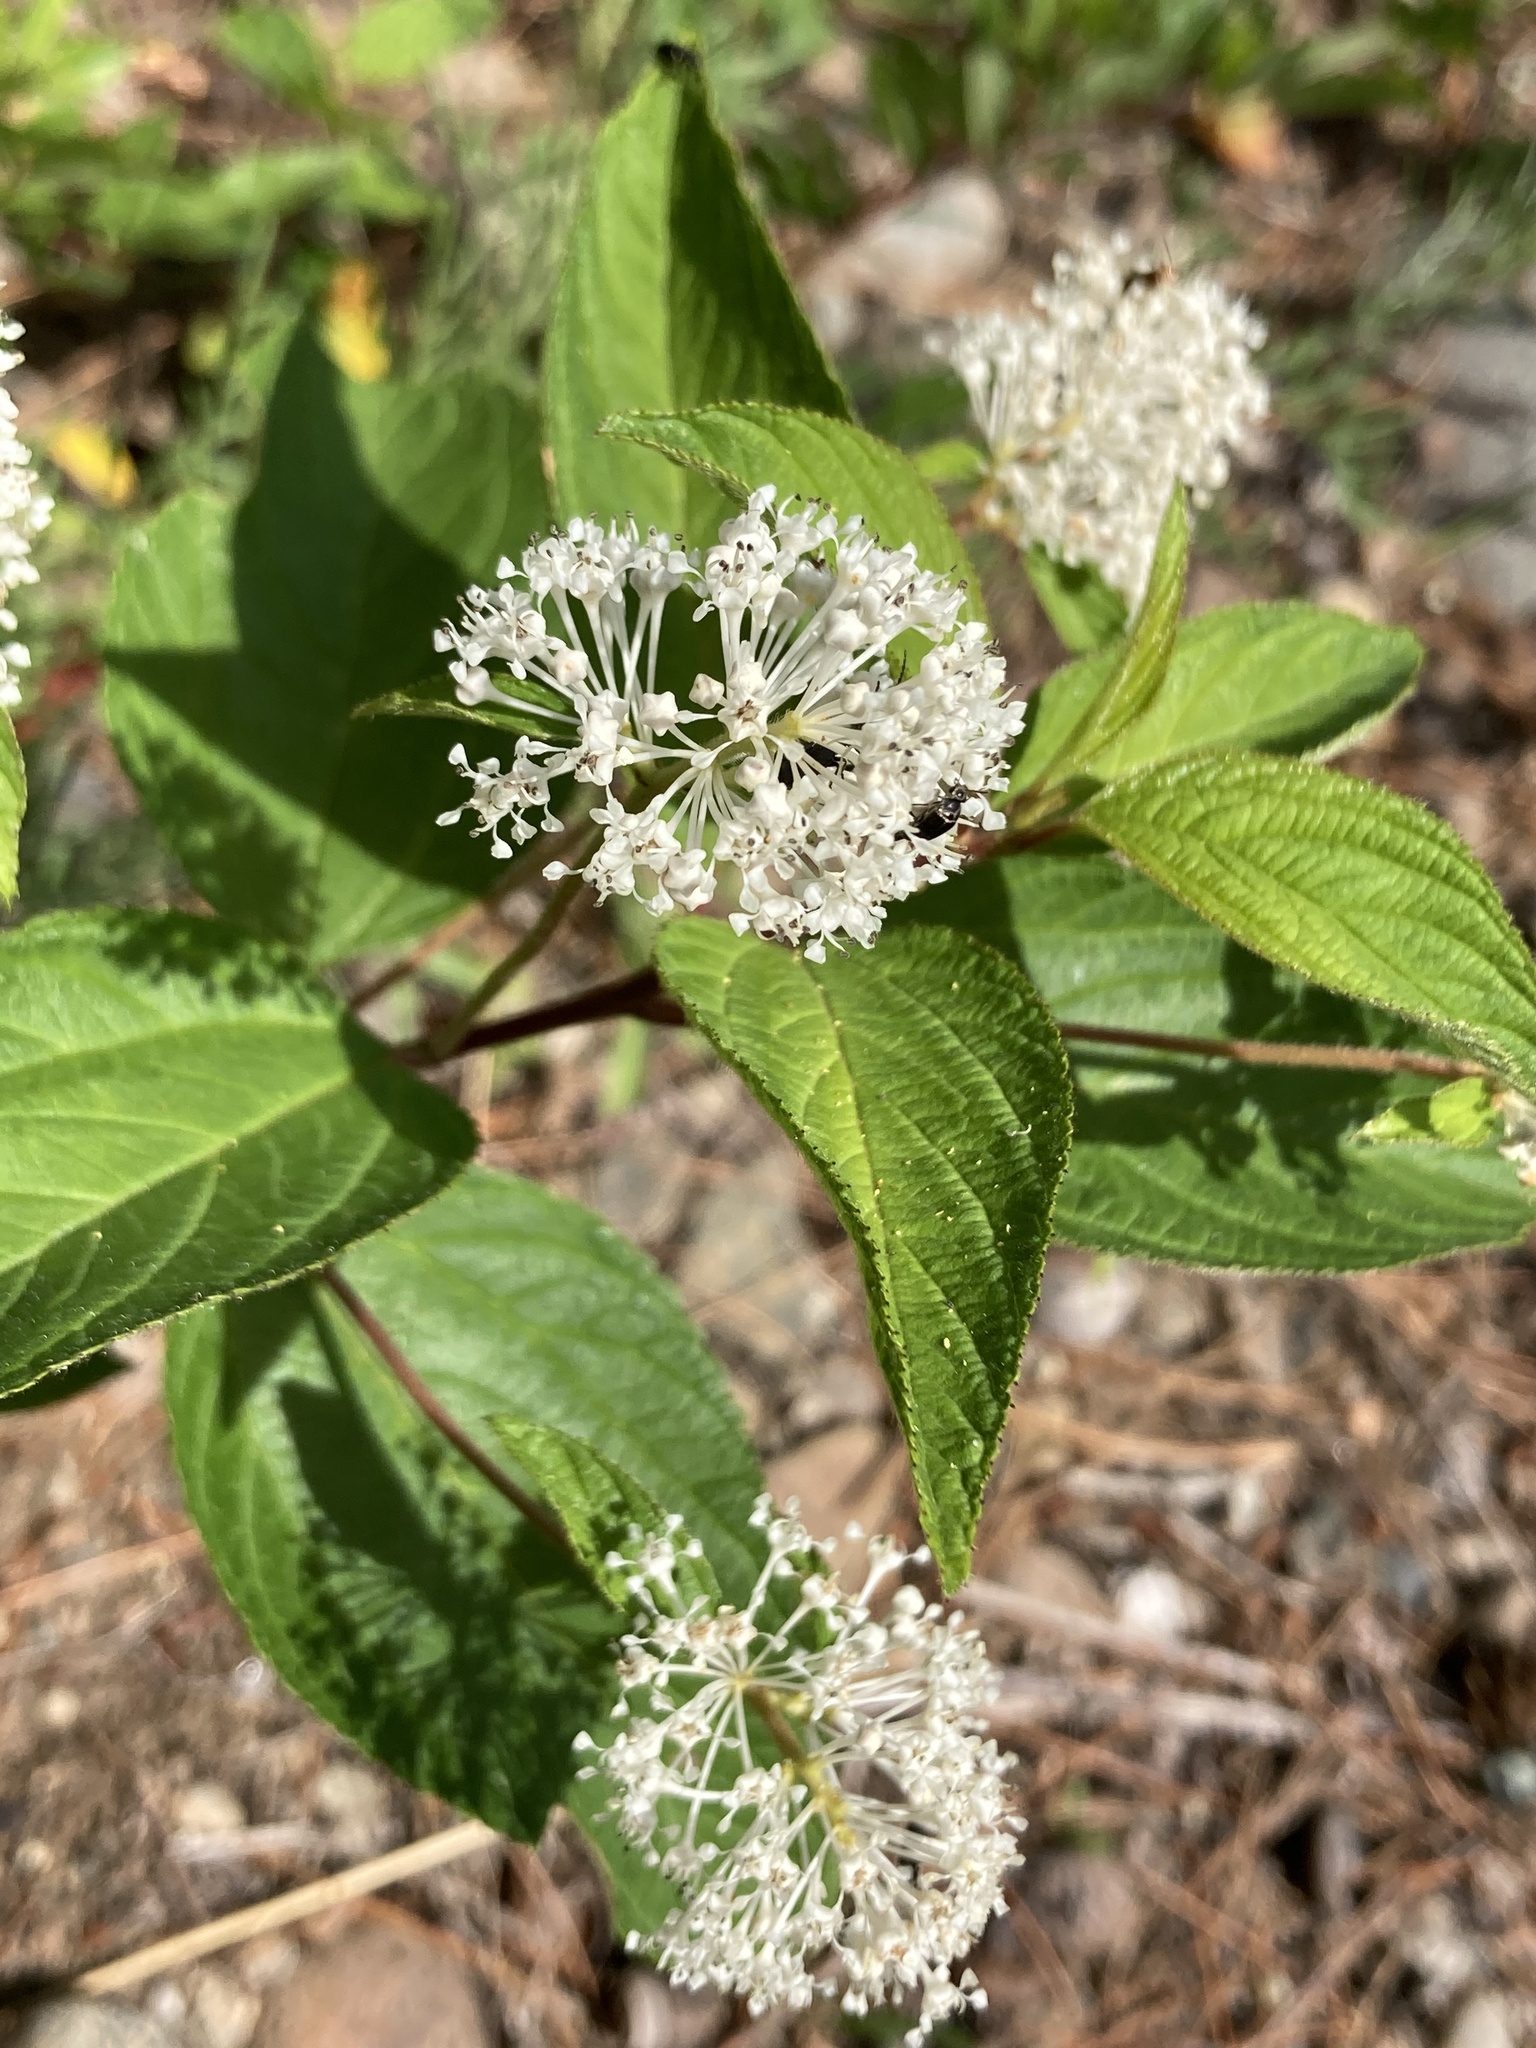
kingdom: Plantae
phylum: Tracheophyta
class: Magnoliopsida
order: Rosales
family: Rhamnaceae
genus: Ceanothus
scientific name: Ceanothus americanus
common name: Redroot
